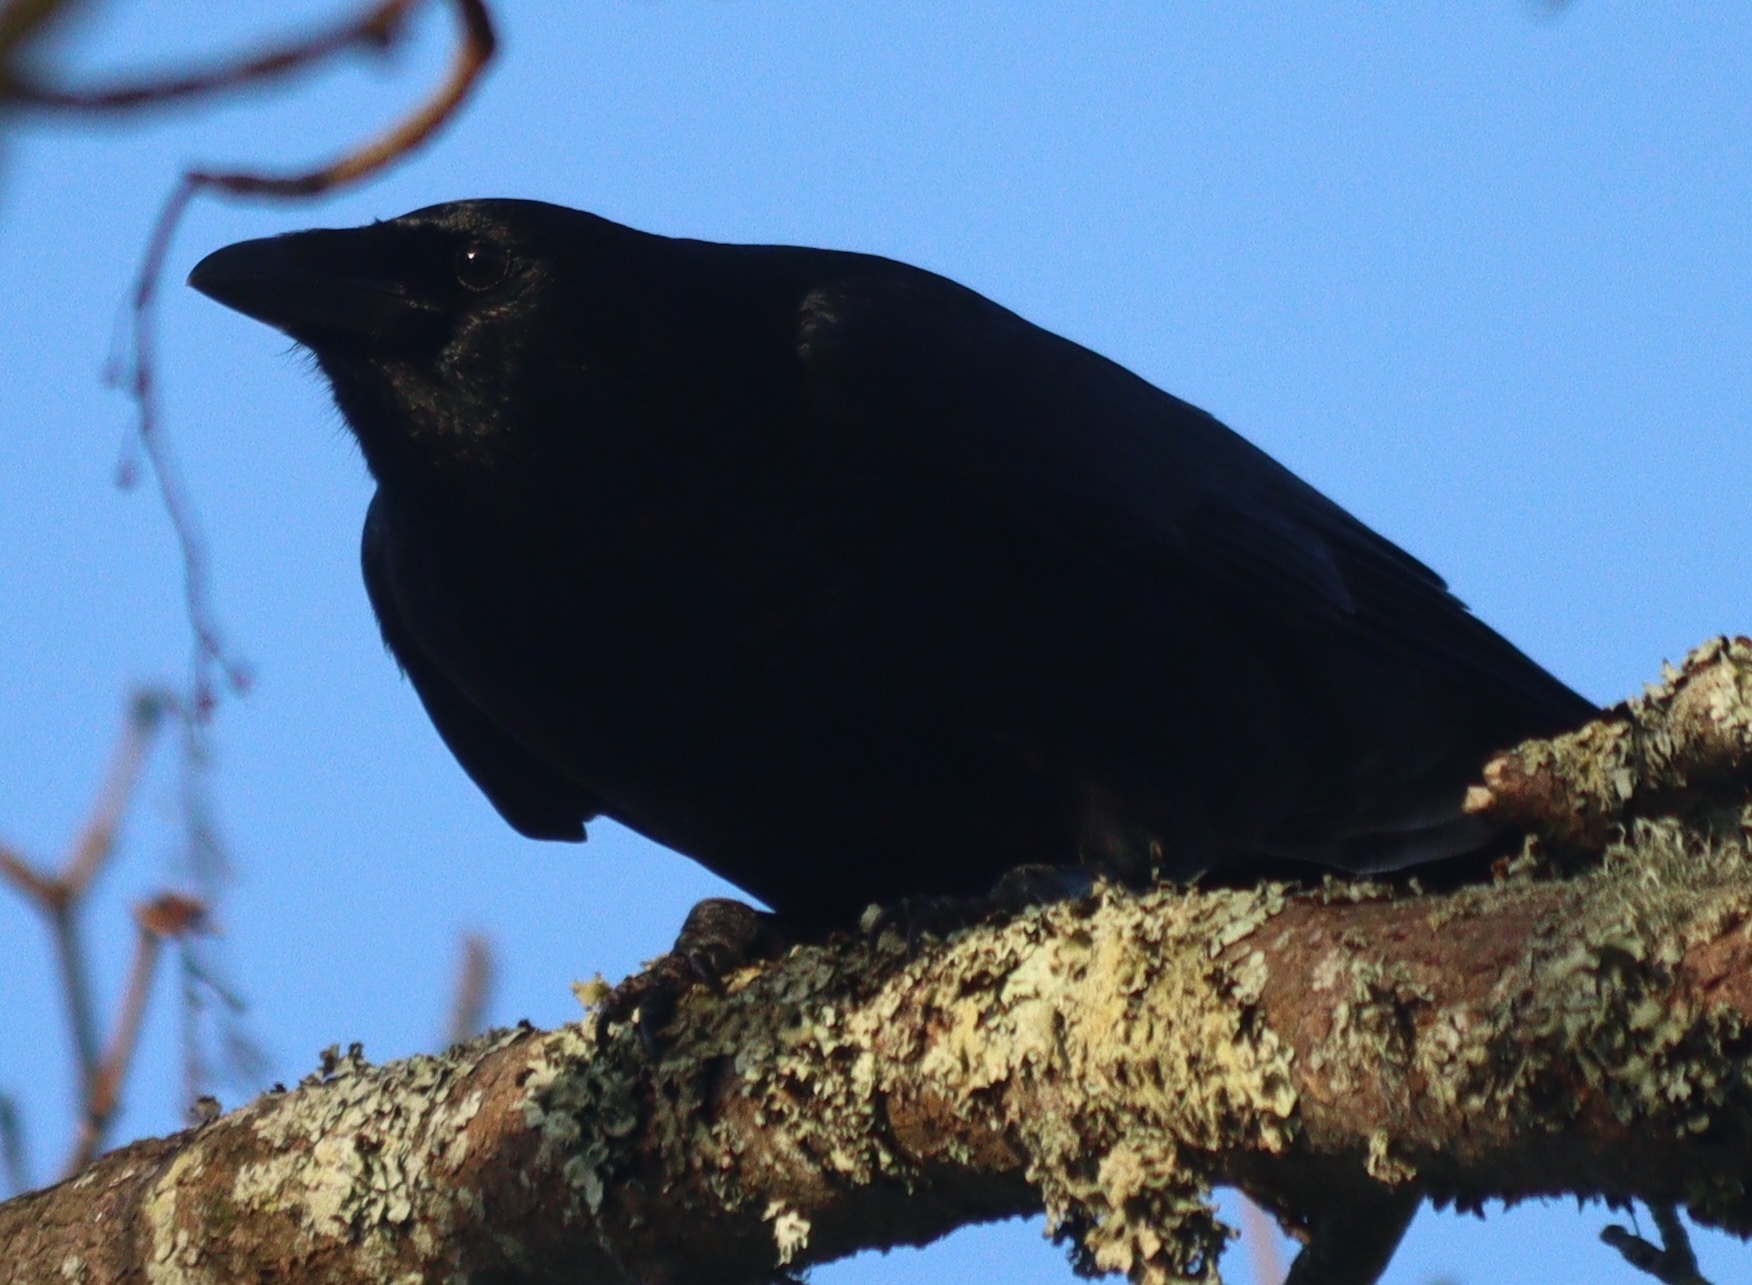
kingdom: Animalia
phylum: Chordata
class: Aves
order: Passeriformes
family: Corvidae
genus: Corvus
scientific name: Corvus corone
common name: Carrion crow
